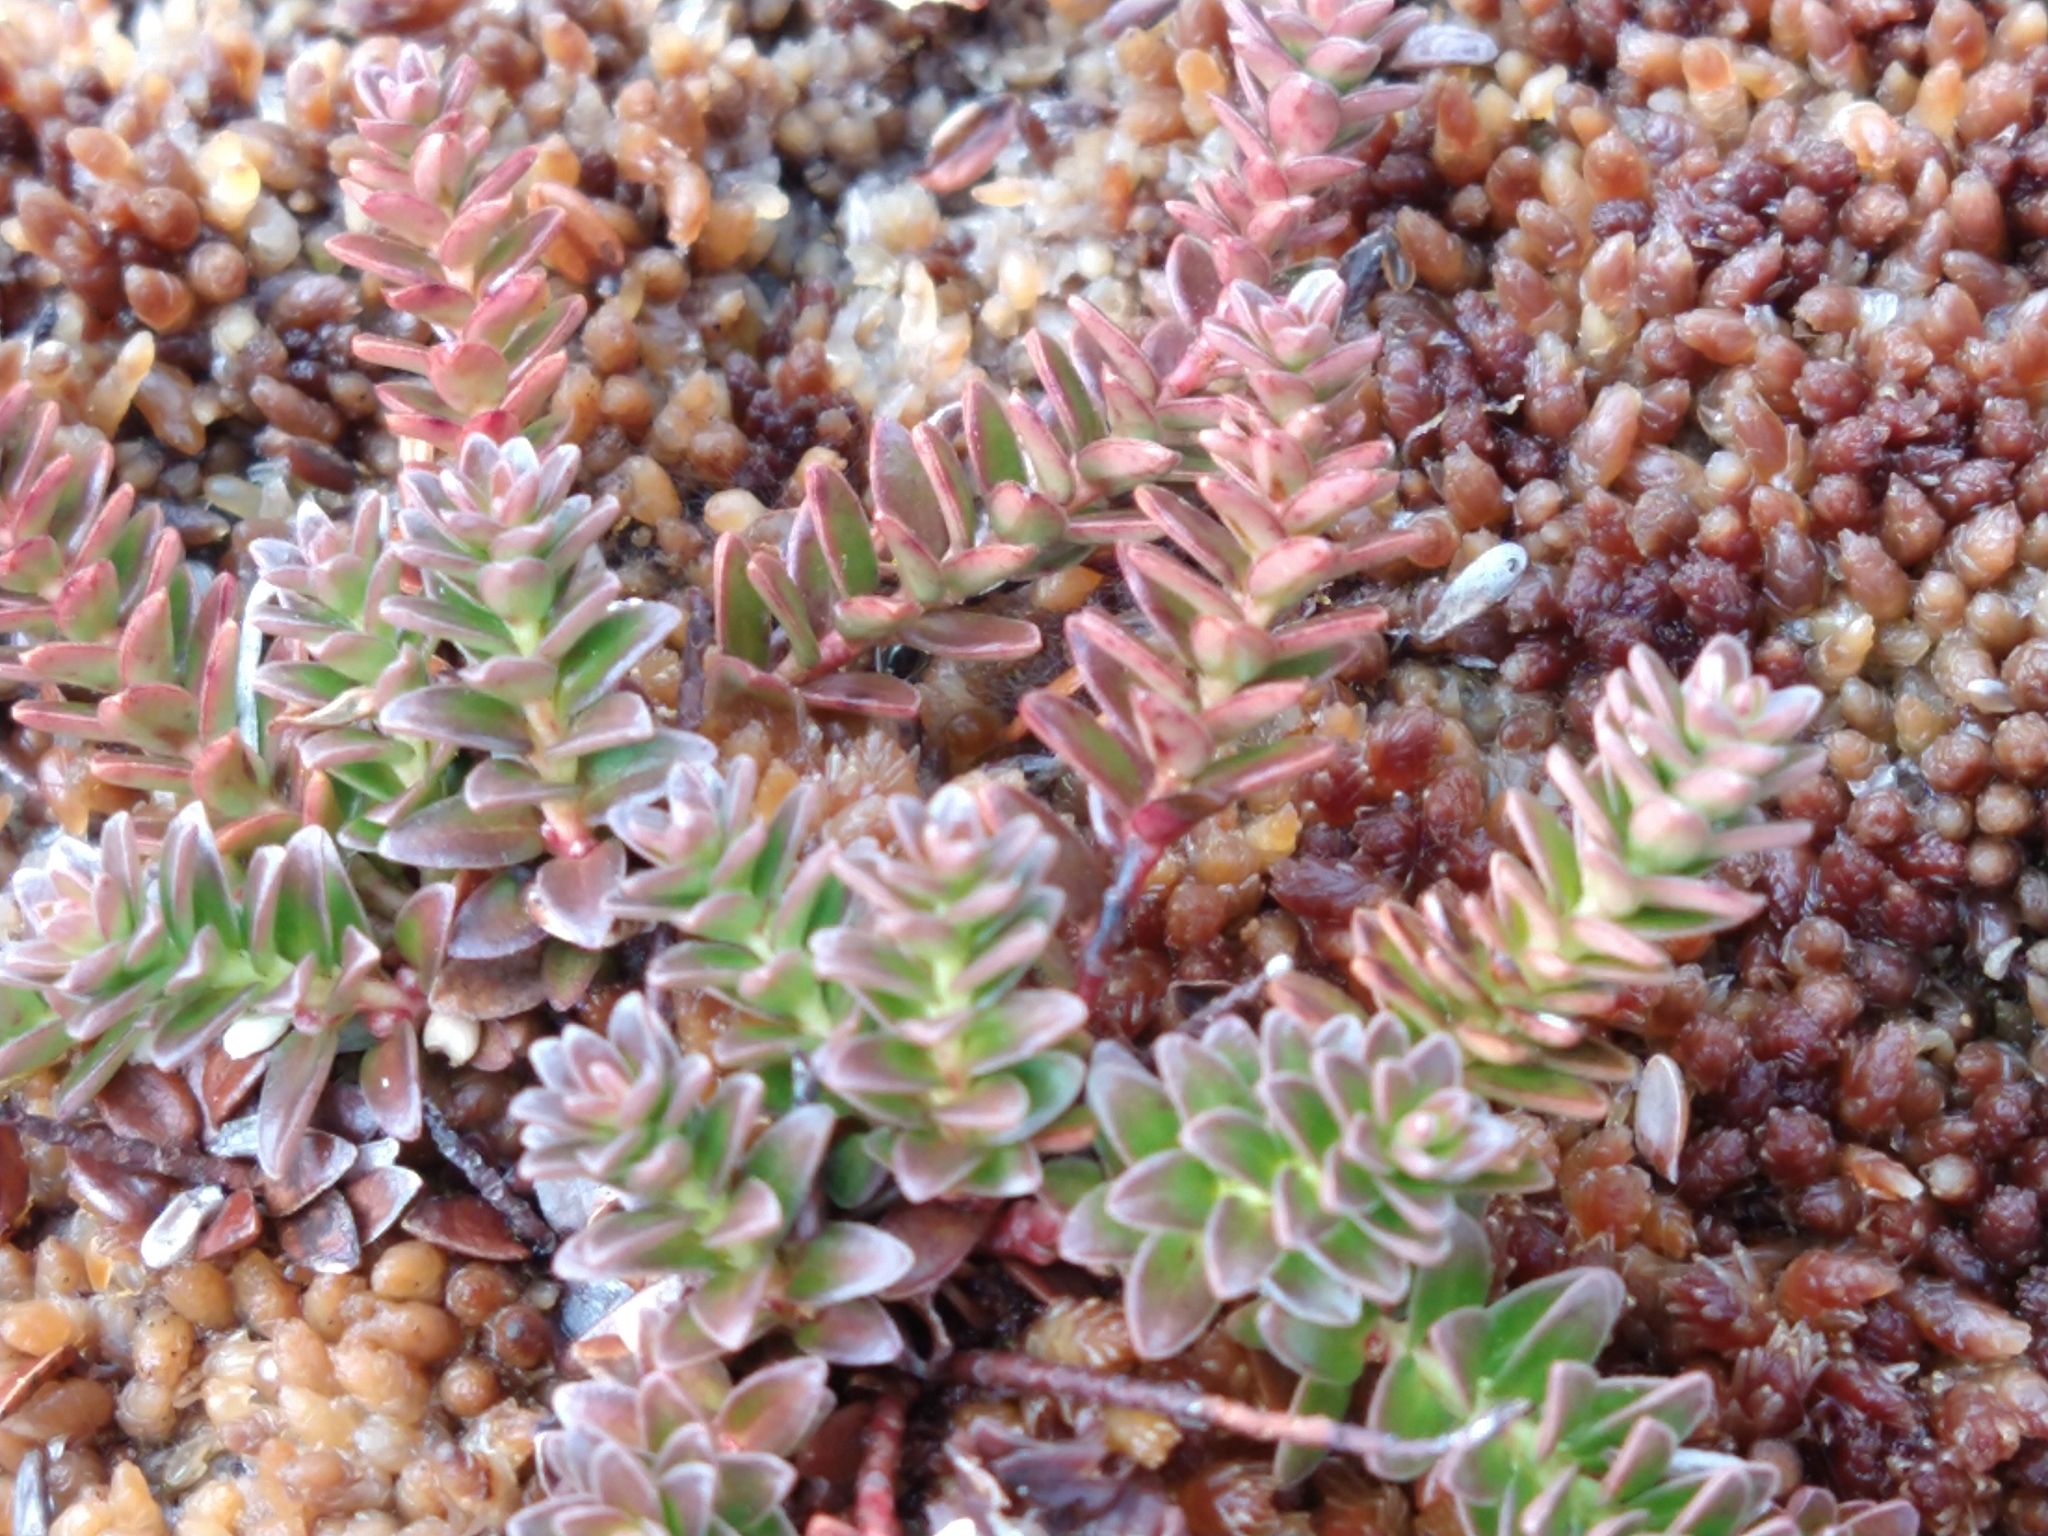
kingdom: Plantae
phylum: Tracheophyta
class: Magnoliopsida
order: Ericales
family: Ericaceae
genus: Gaultheria
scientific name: Gaultheria pumila
